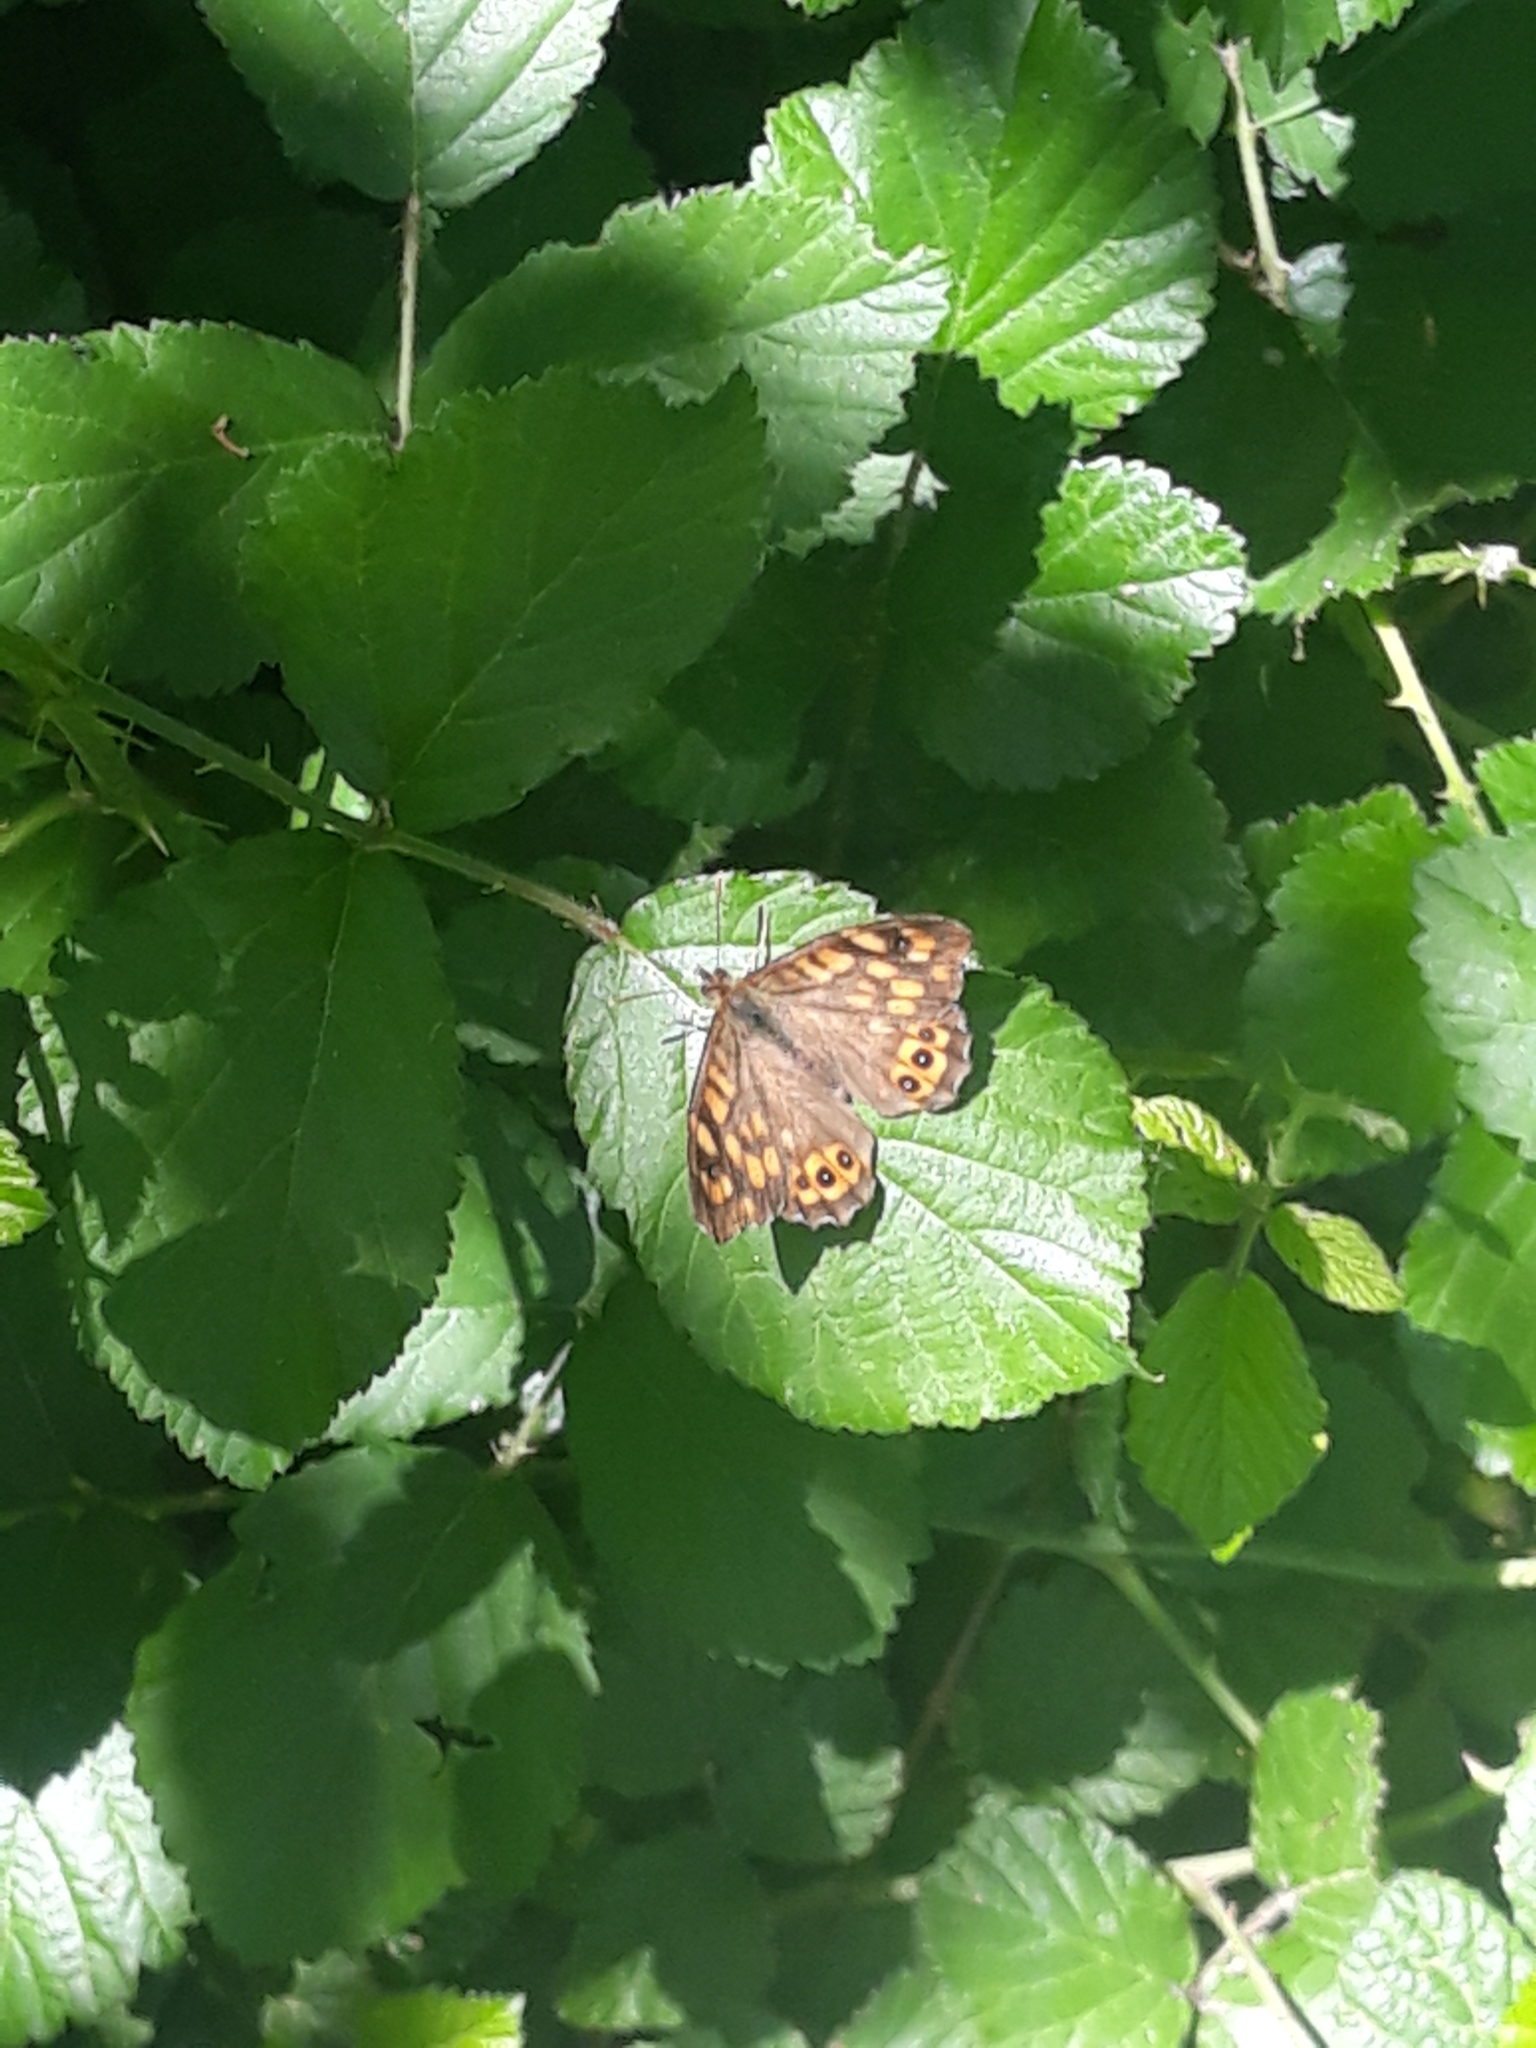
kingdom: Animalia
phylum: Arthropoda
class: Insecta
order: Lepidoptera
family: Nymphalidae
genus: Pararge
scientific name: Pararge aegeria
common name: Speckled wood
